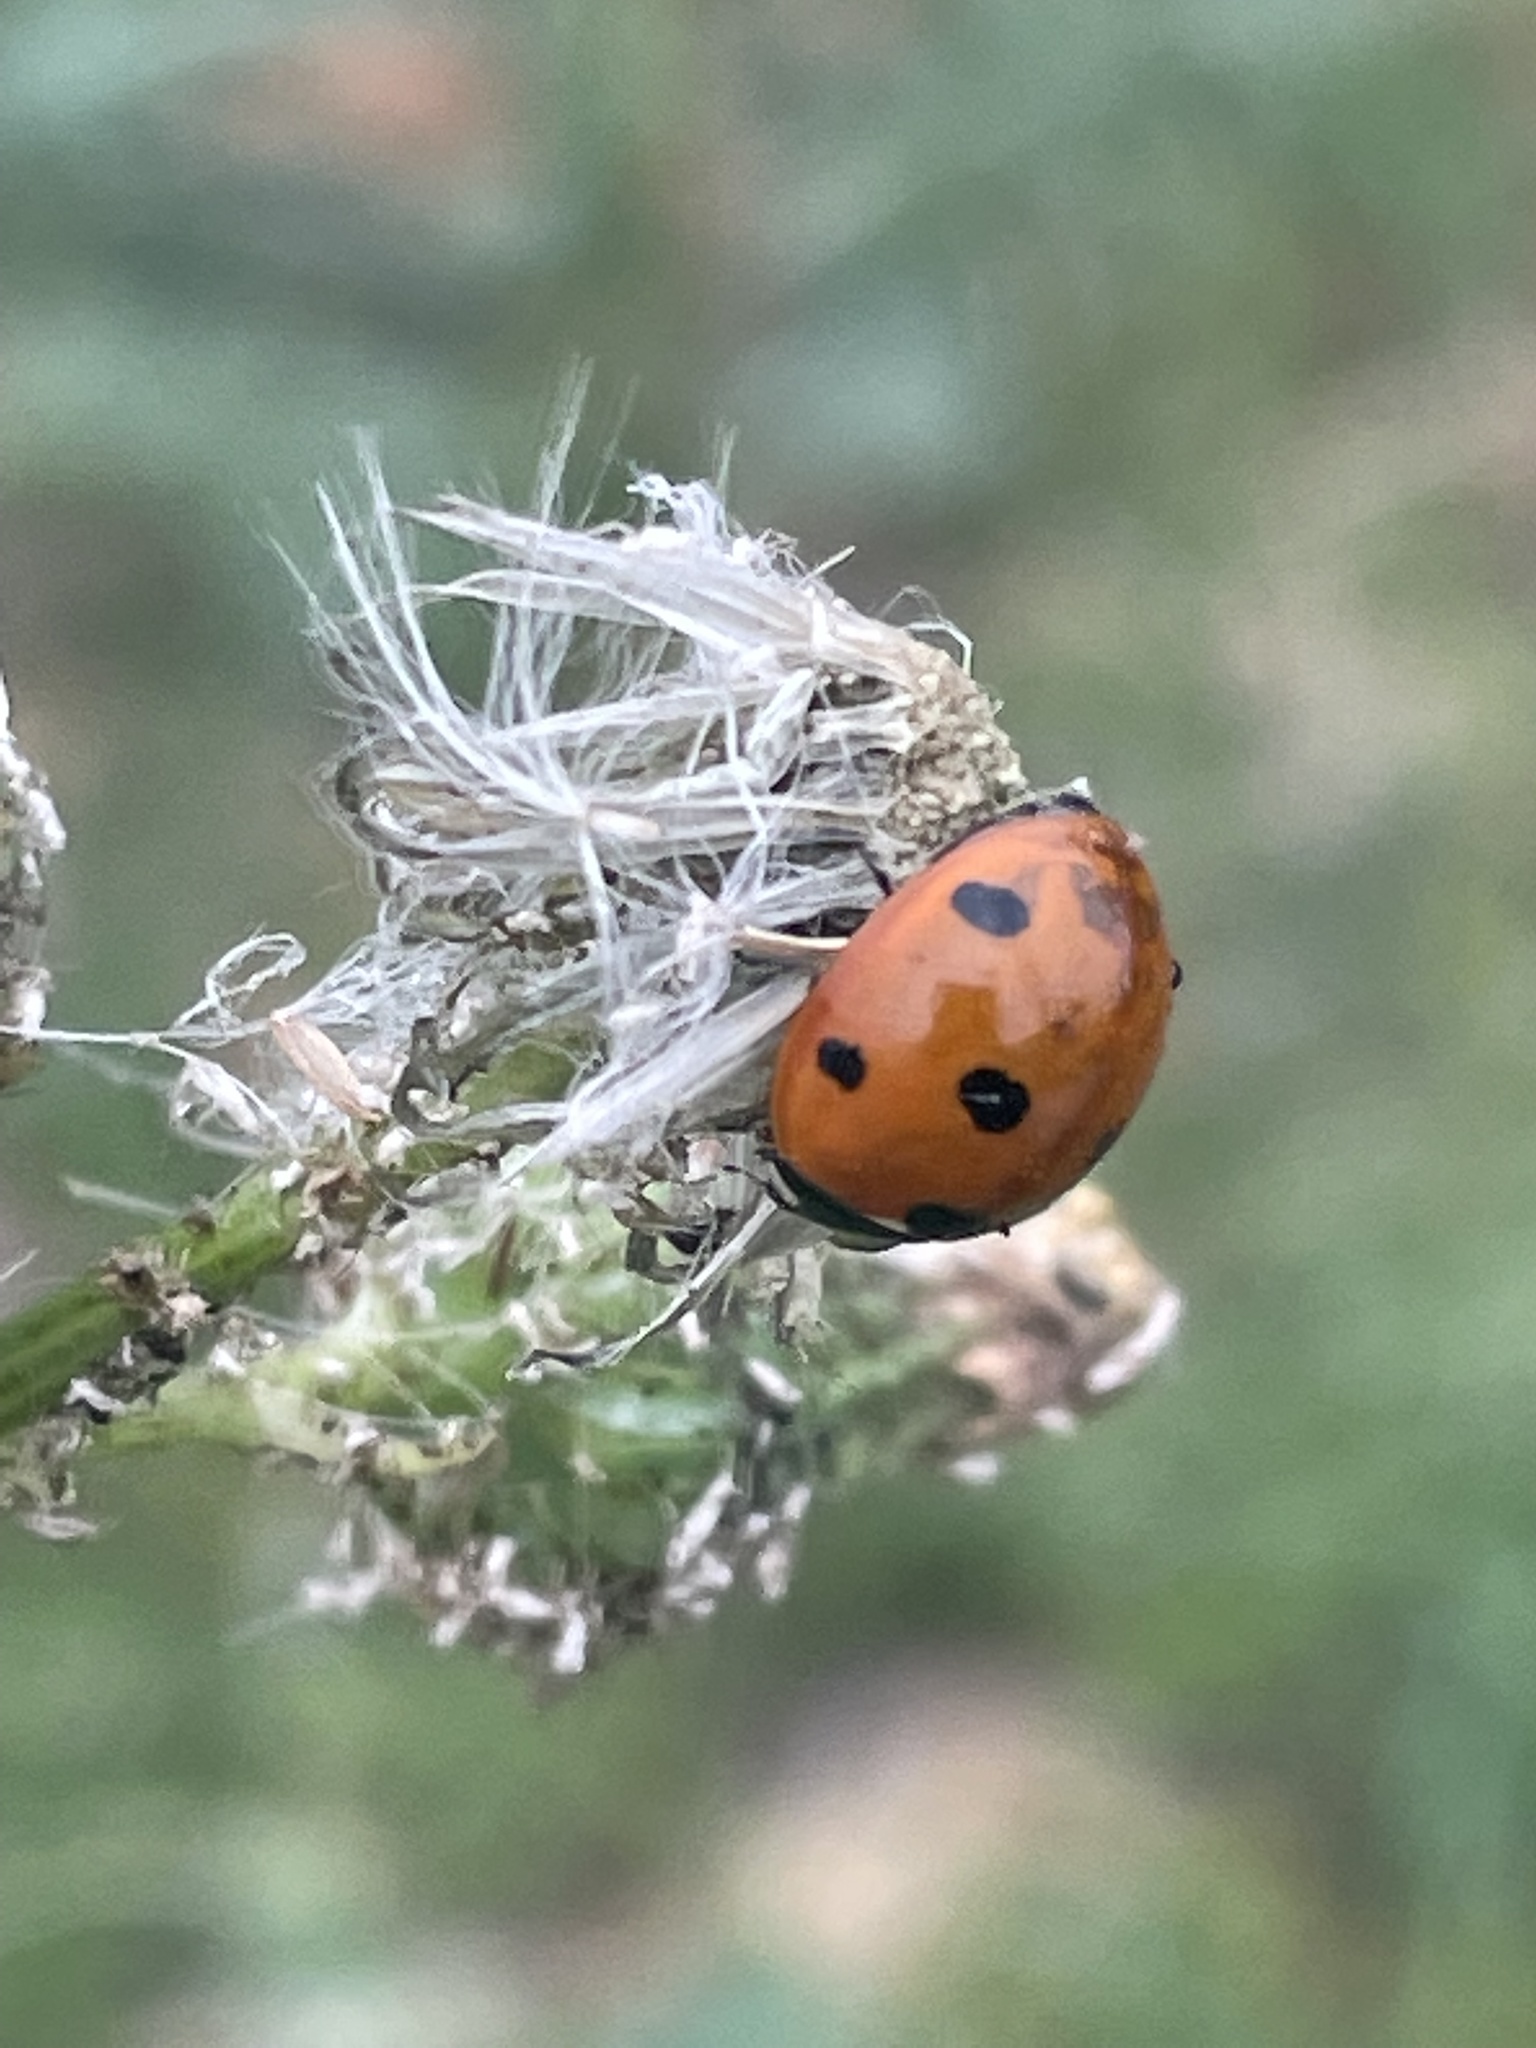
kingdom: Animalia
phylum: Arthropoda
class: Insecta
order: Coleoptera
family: Coccinellidae
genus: Coccinella
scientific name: Coccinella septempunctata
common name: Sevenspotted lady beetle
